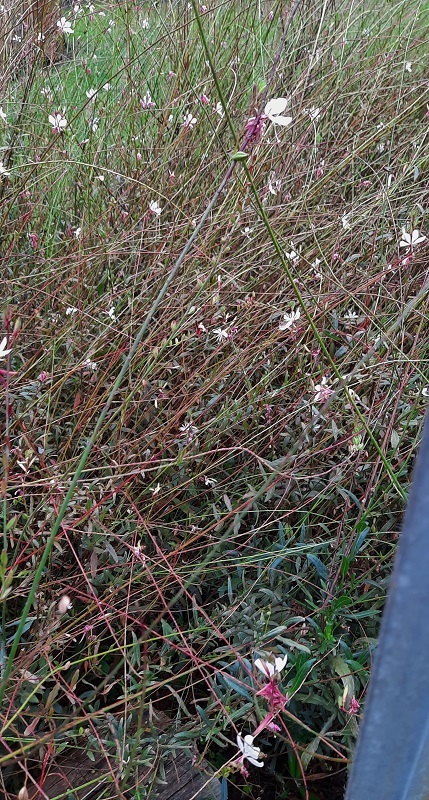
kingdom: Plantae
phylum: Tracheophyta
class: Magnoliopsida
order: Myrtales
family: Onagraceae
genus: Oenothera
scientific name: Oenothera lindheimeri
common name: Lindheimer's beeblossom
